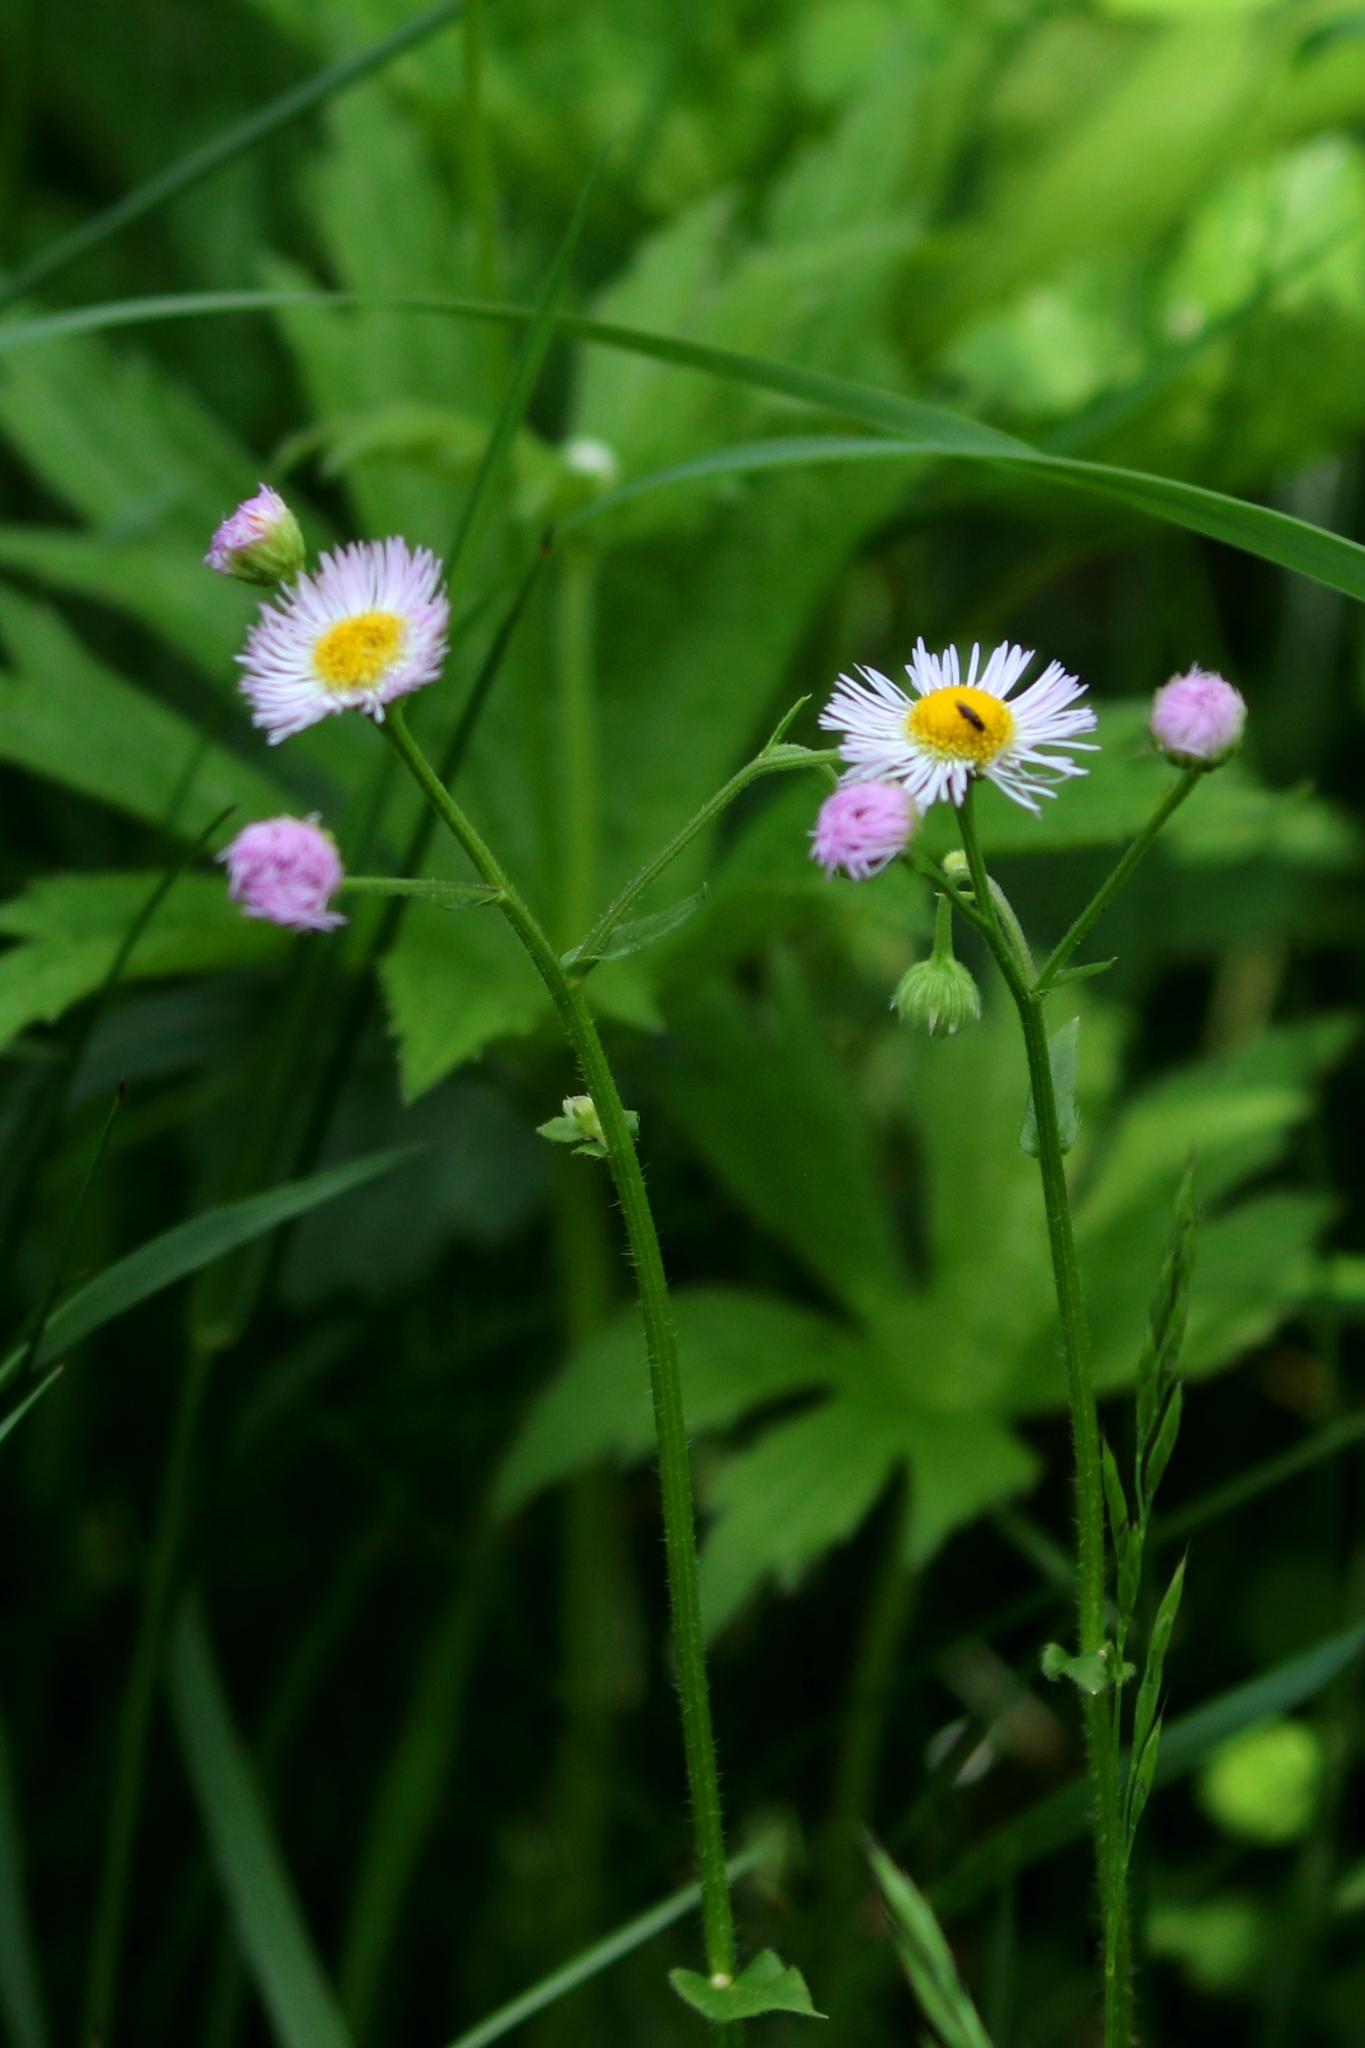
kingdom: Plantae
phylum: Tracheophyta
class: Magnoliopsida
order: Asterales
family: Asteraceae
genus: Erigeron
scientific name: Erigeron philadelphicus
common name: Robin's-plantain
